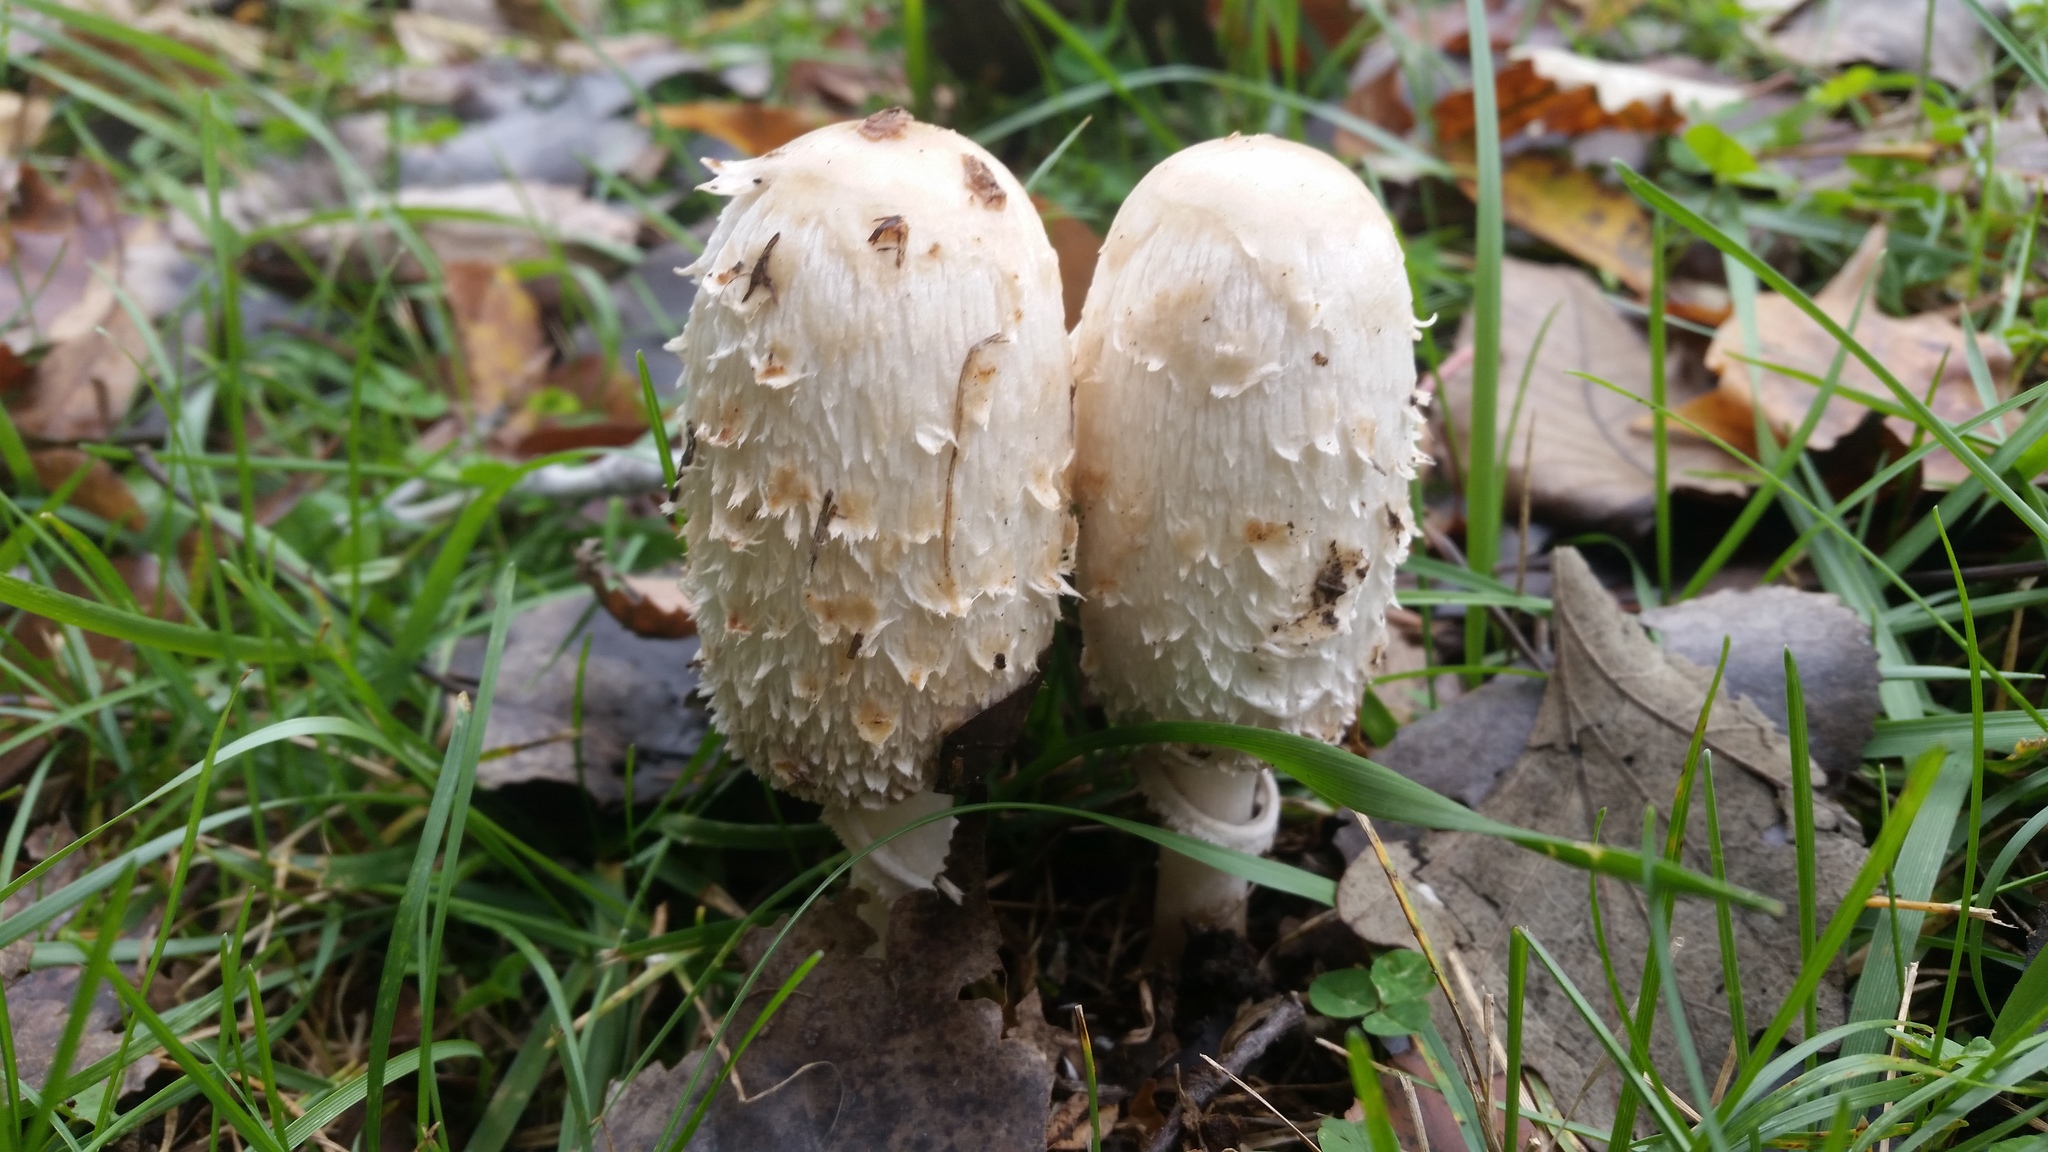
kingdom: Fungi
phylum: Basidiomycota
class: Agaricomycetes
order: Agaricales
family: Agaricaceae
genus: Coprinus
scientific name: Coprinus comatus
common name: Lawyer's wig
